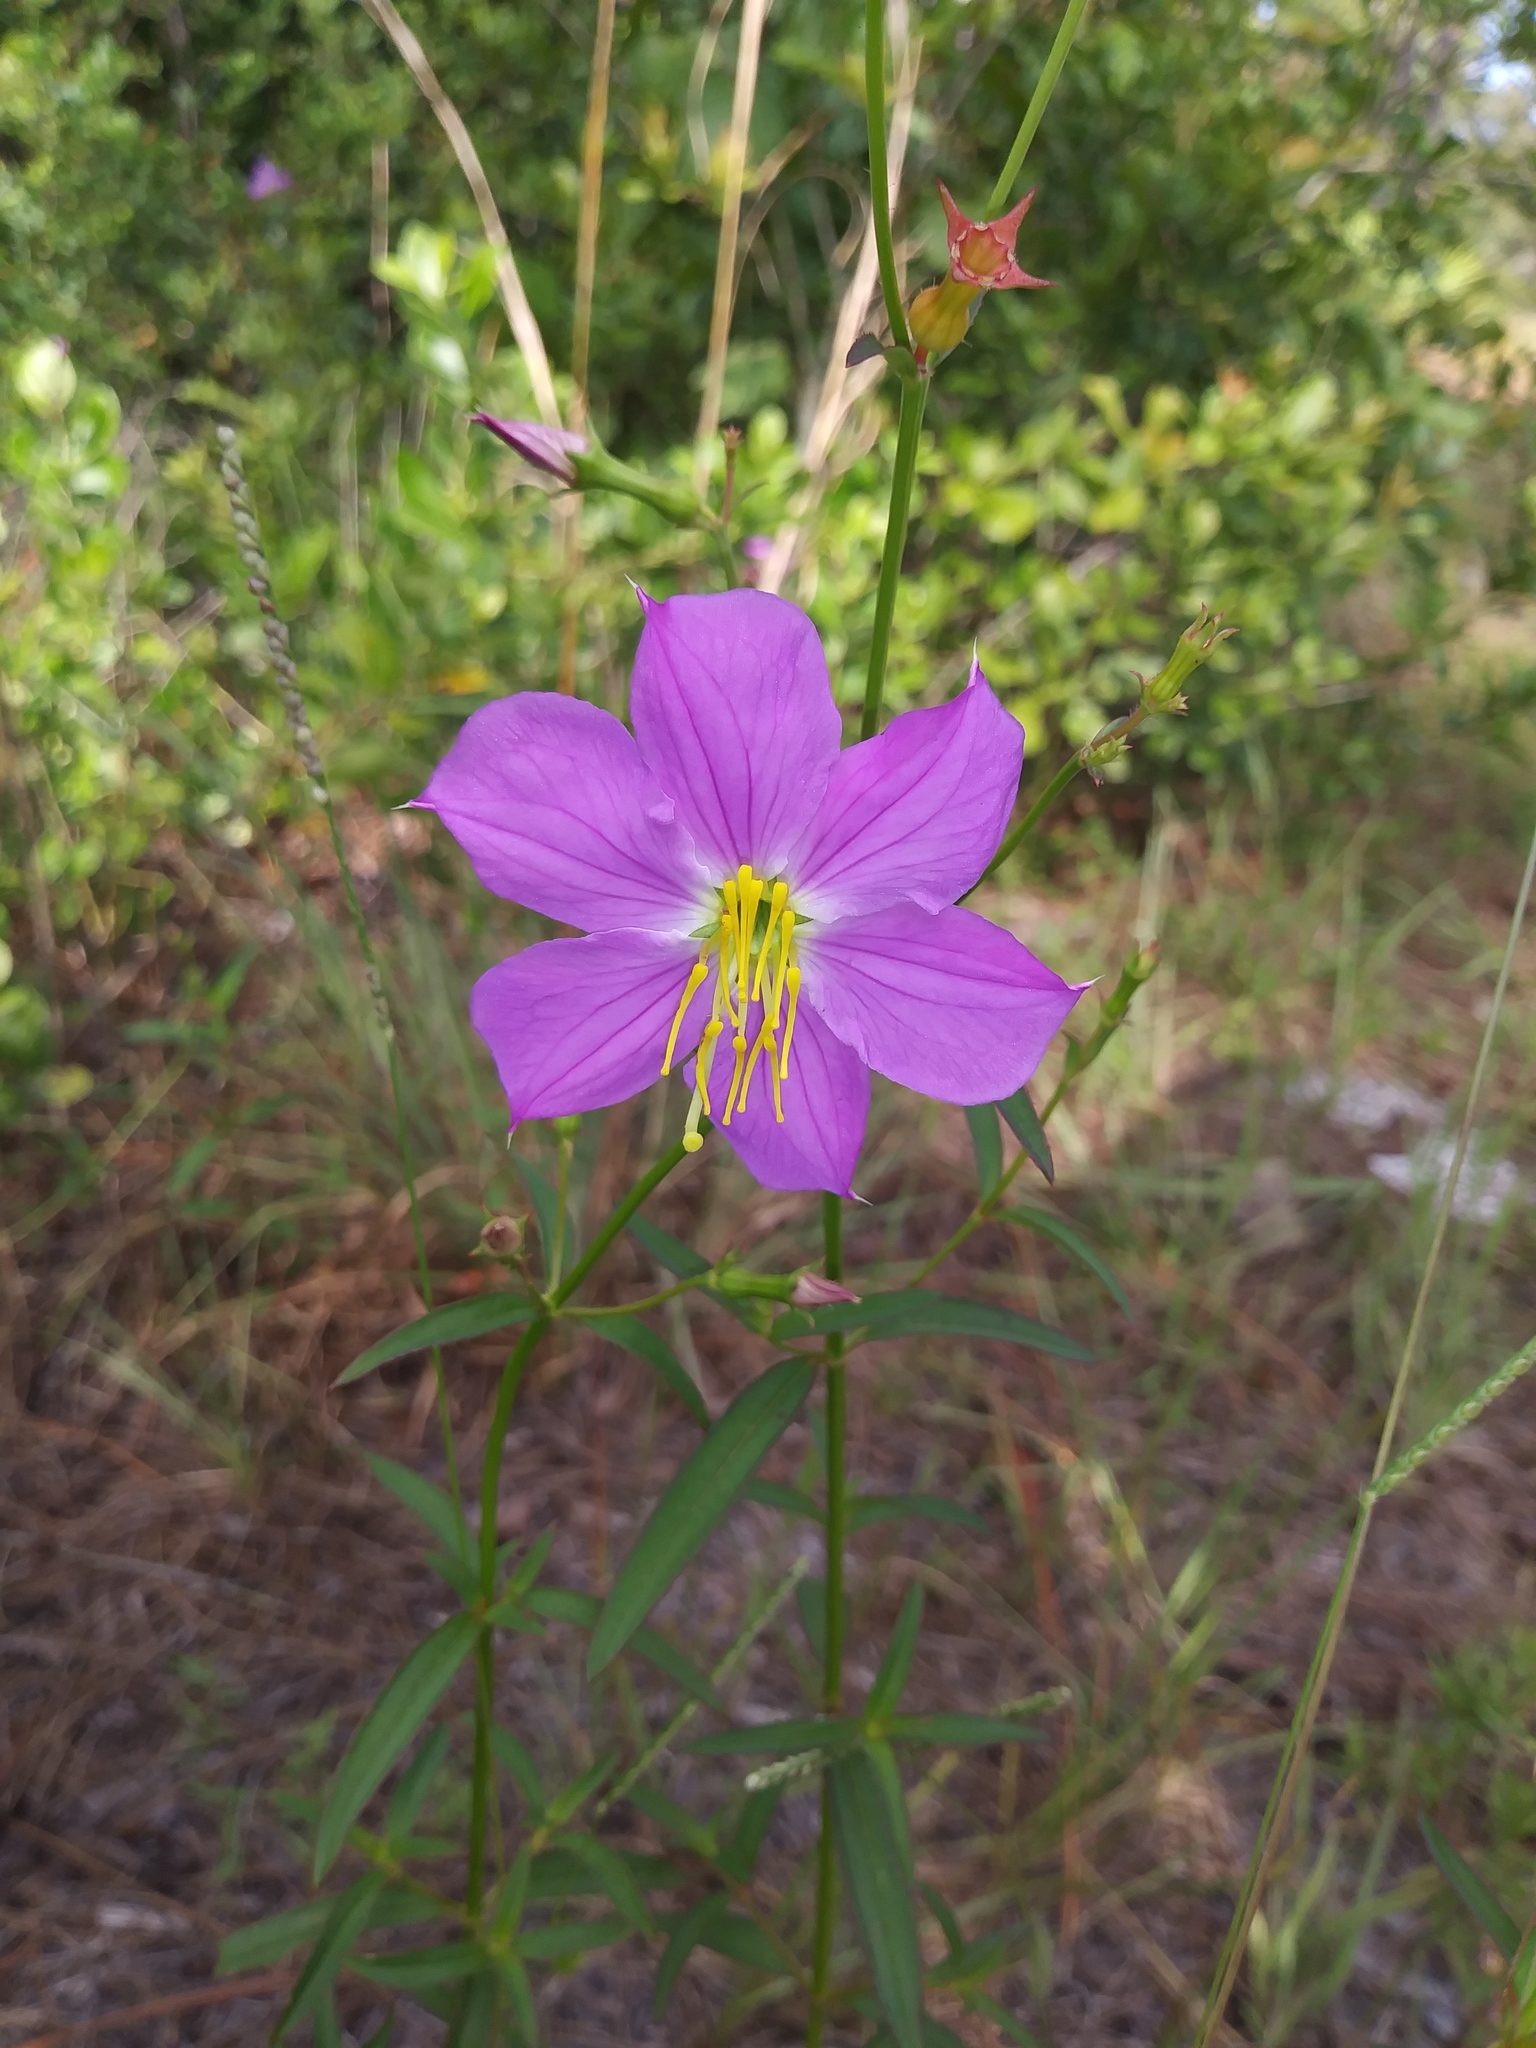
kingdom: Plantae
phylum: Tracheophyta
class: Magnoliopsida
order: Myrtales
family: Melastomataceae
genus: Rhexia
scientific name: Rhexia nashii
